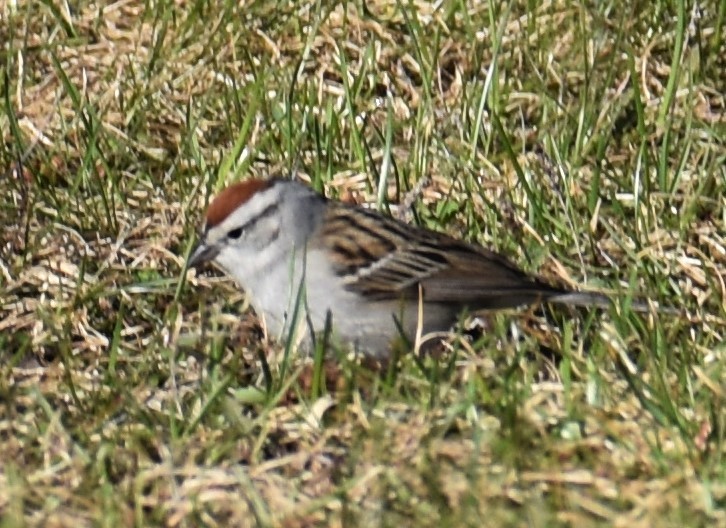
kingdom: Animalia
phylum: Chordata
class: Aves
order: Passeriformes
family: Passerellidae
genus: Spizella
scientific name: Spizella passerina
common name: Chipping sparrow
